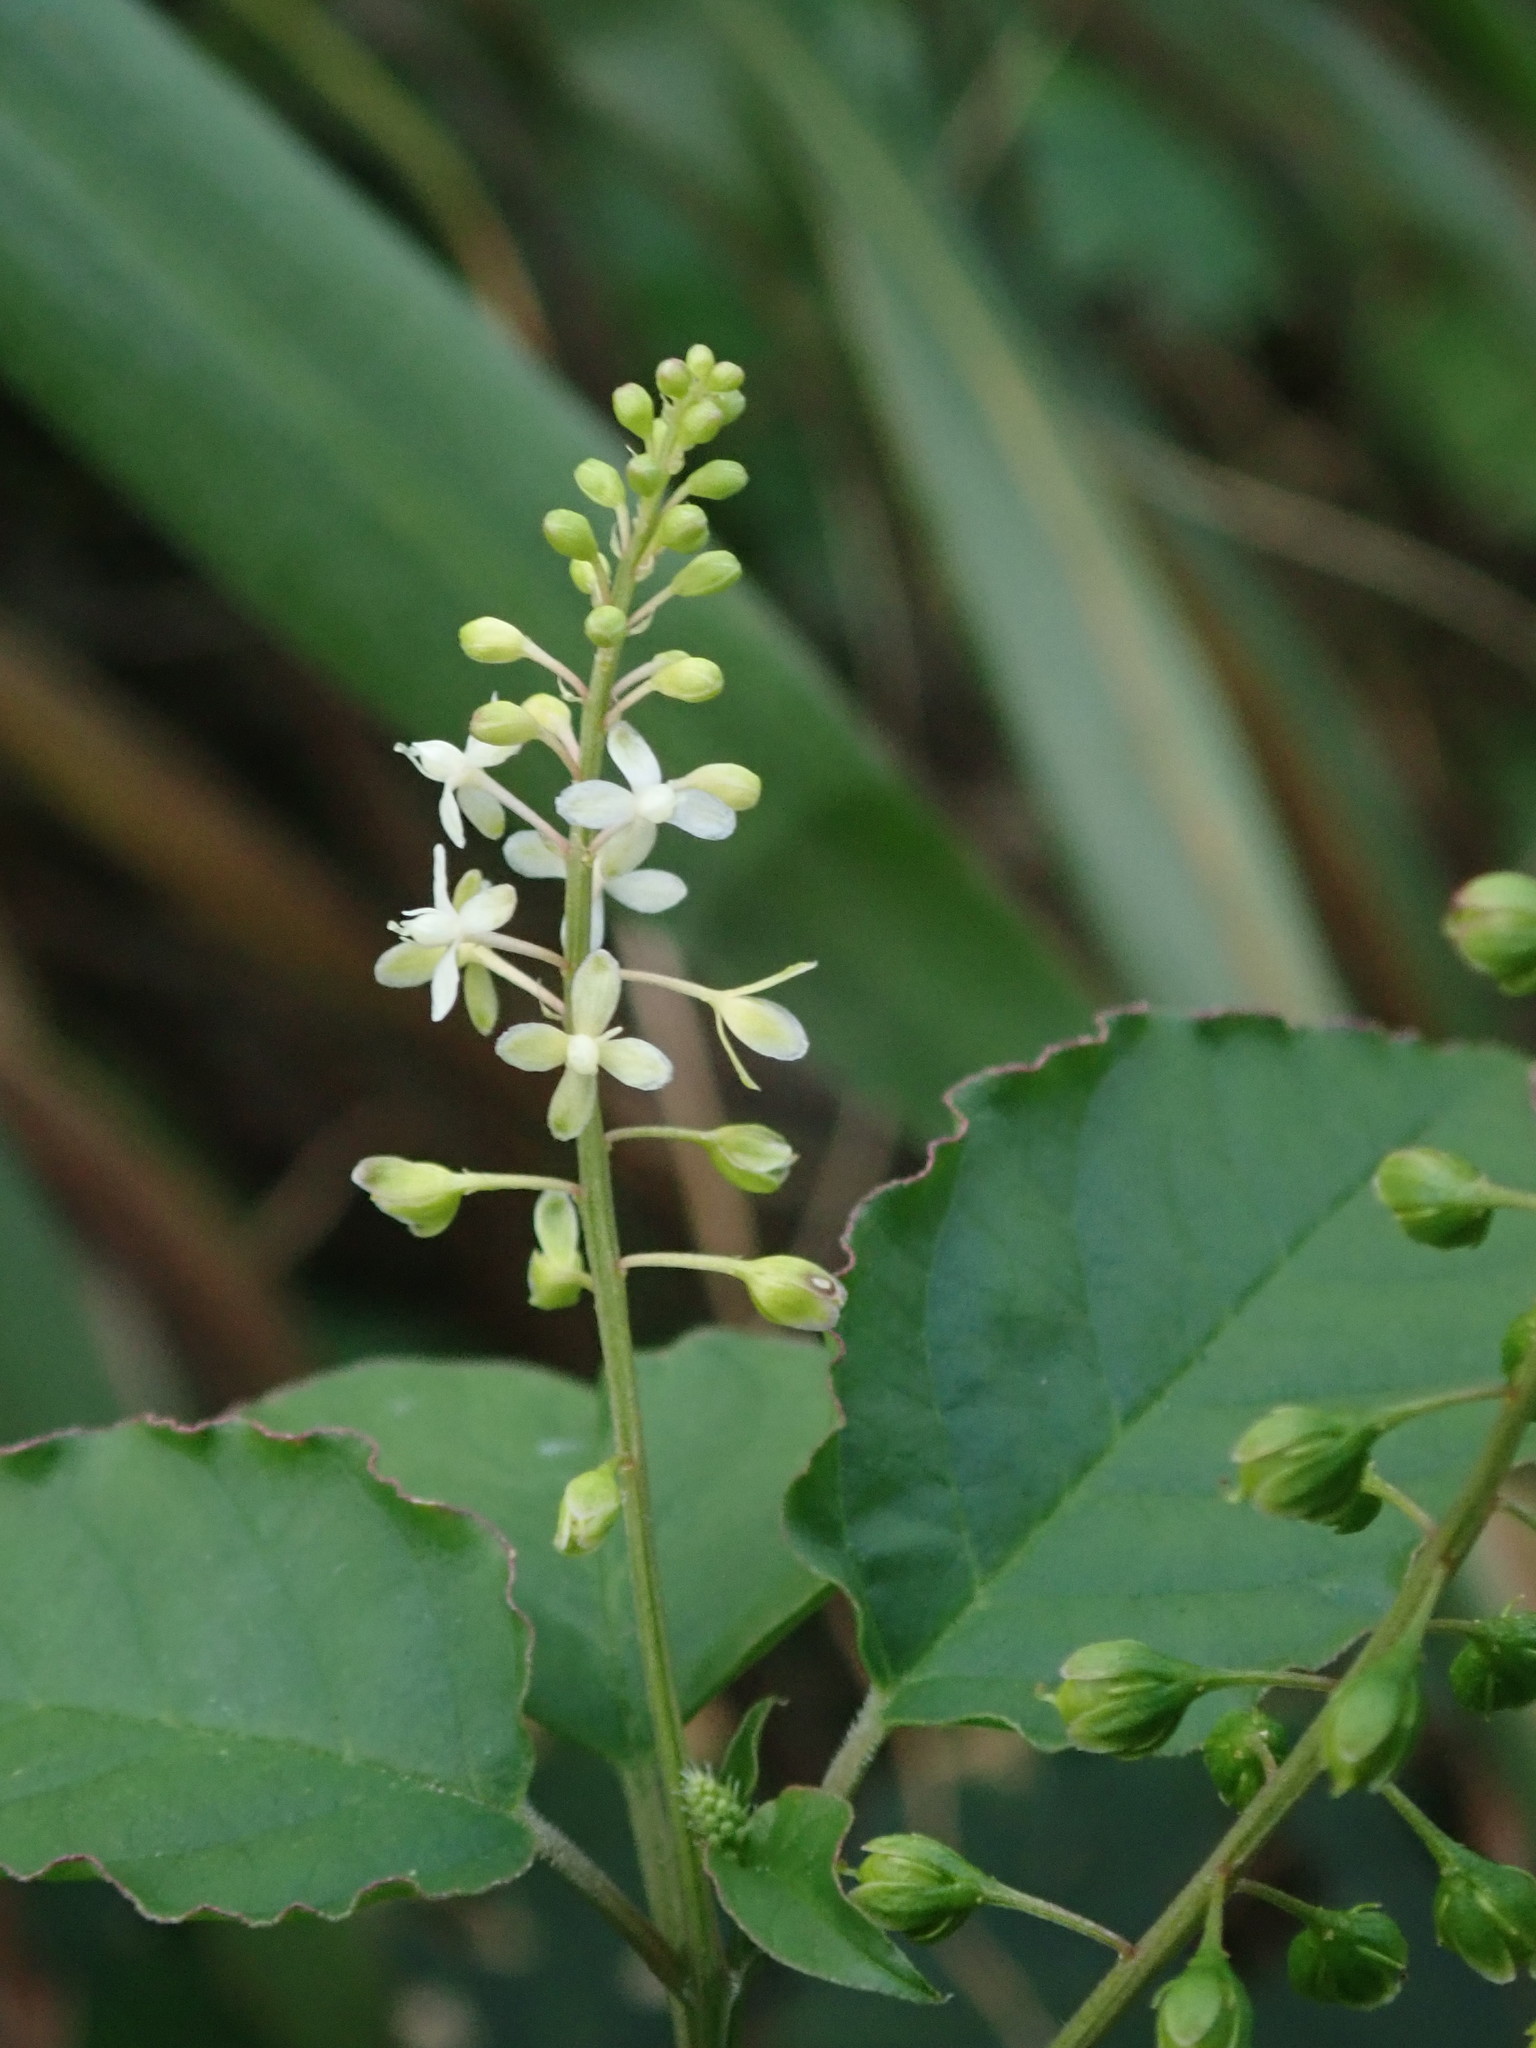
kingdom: Plantae
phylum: Tracheophyta
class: Magnoliopsida
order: Caryophyllales
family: Phytolaccaceae
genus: Rivina
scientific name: Rivina humilis
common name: Rougeplant
